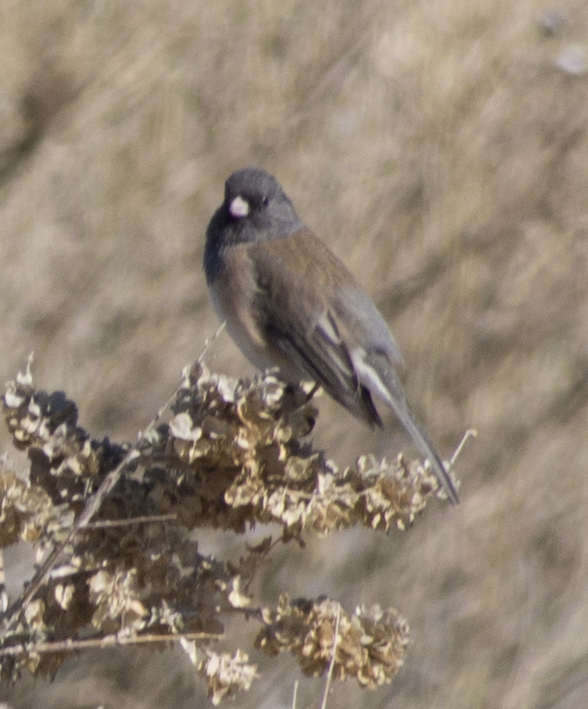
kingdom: Animalia
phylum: Chordata
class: Aves
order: Passeriformes
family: Passerellidae
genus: Junco
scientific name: Junco hyemalis
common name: Dark-eyed junco
